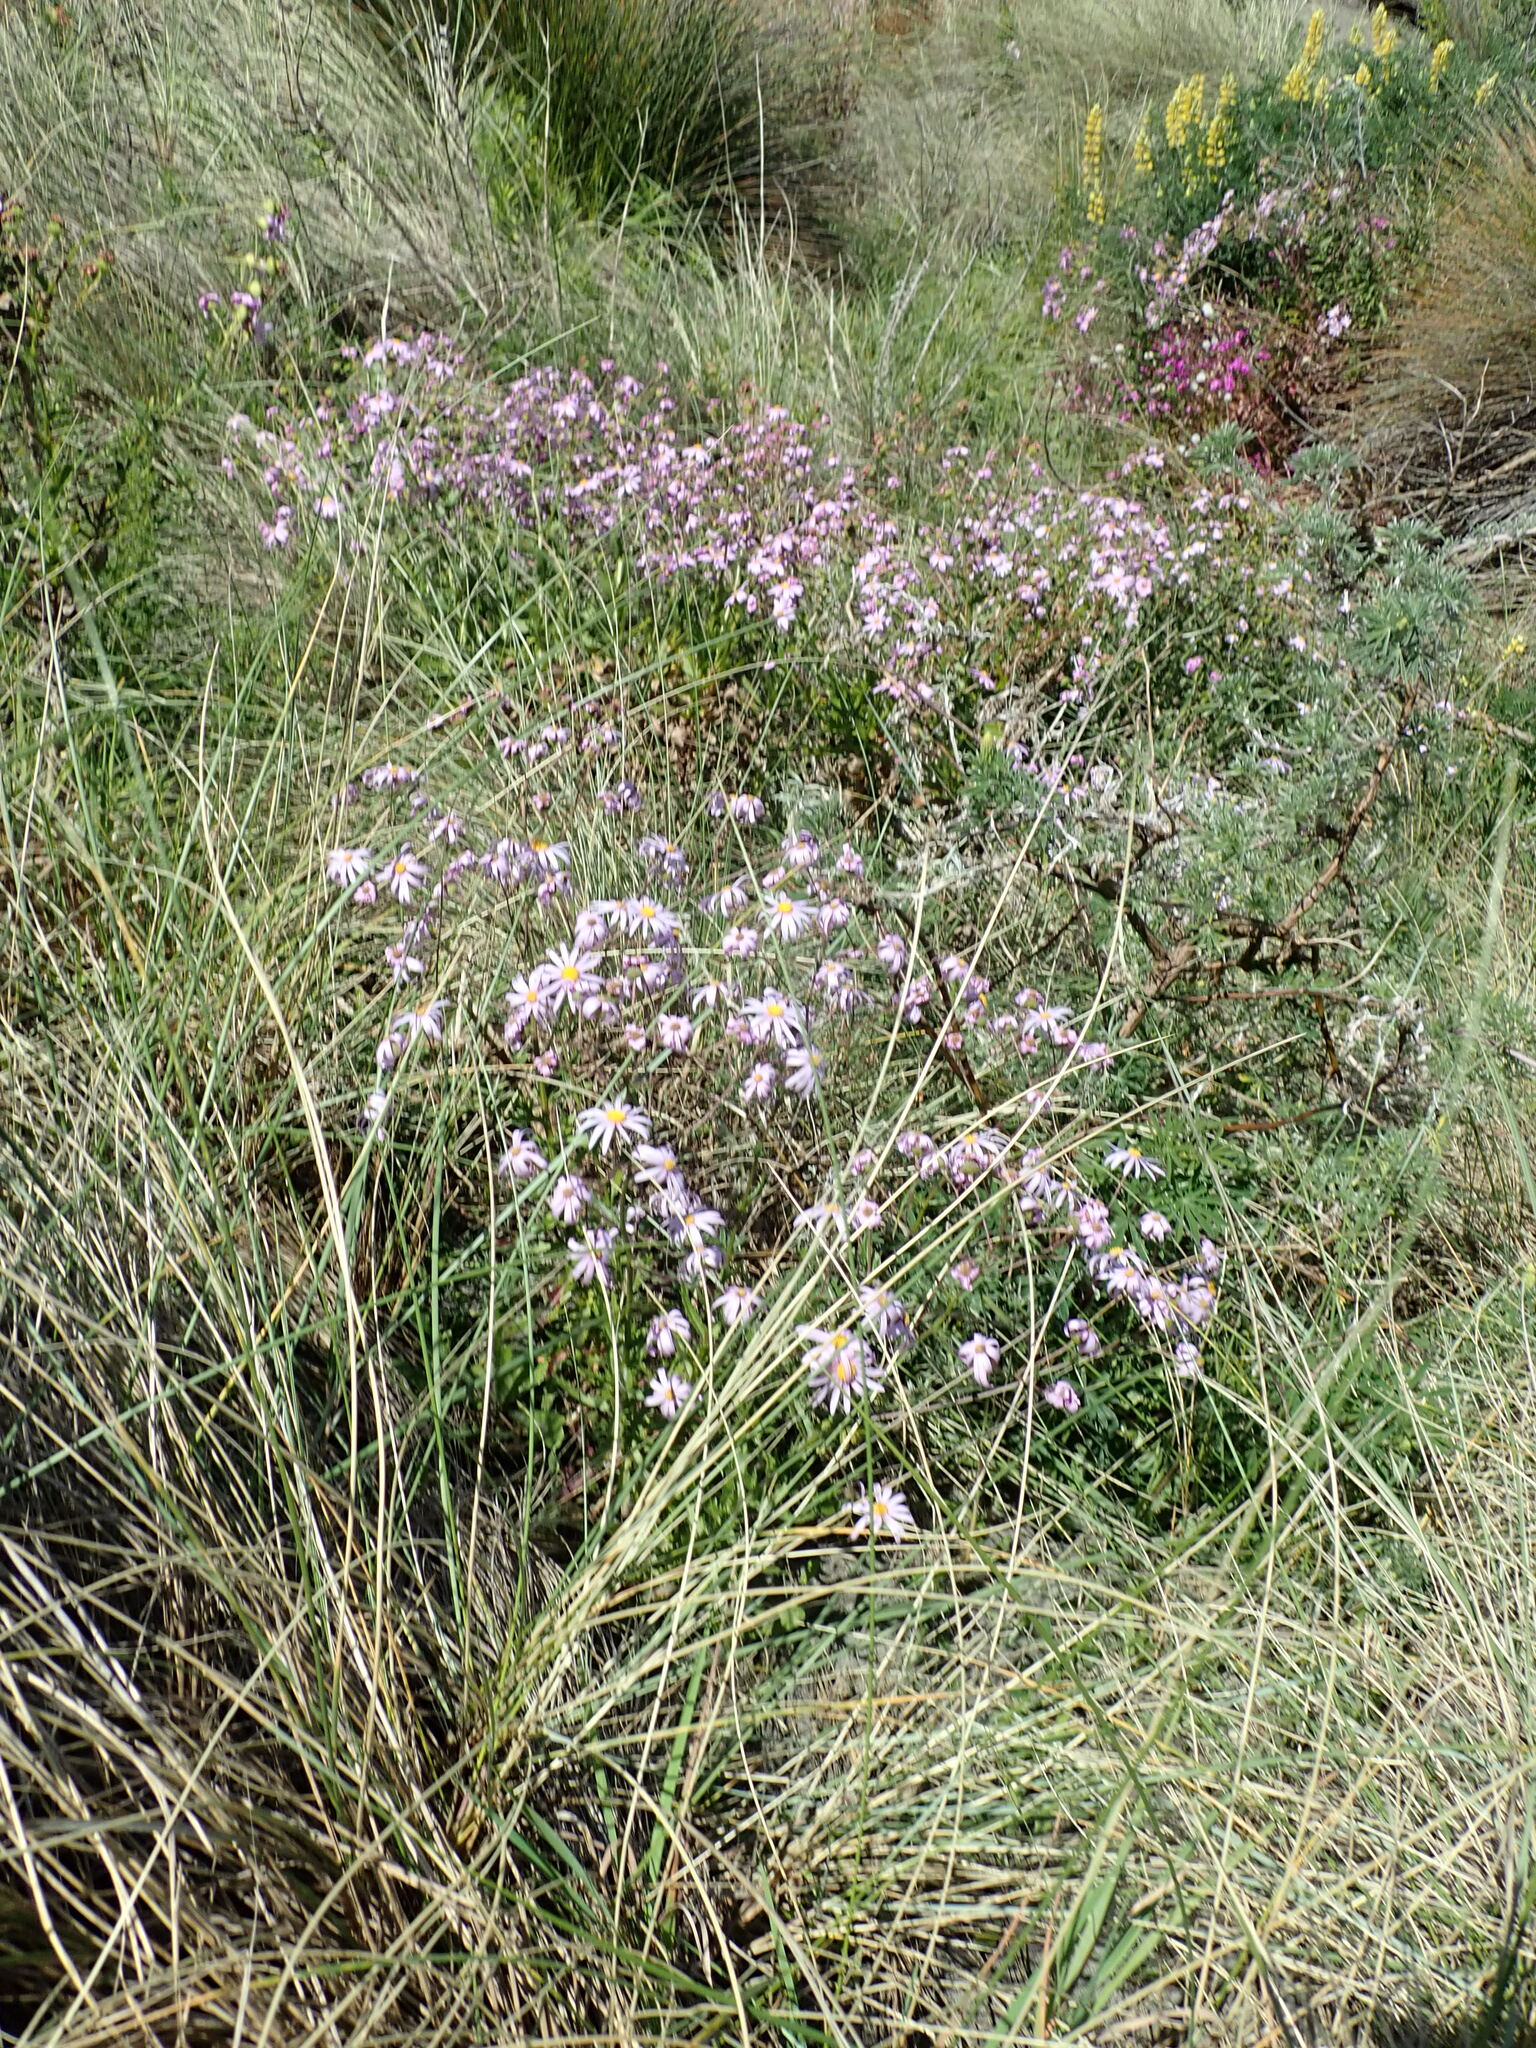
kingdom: Plantae
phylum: Tracheophyta
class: Magnoliopsida
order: Asterales
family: Asteraceae
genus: Senecio
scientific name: Senecio glastifolius
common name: Woad-leaved ragwort
